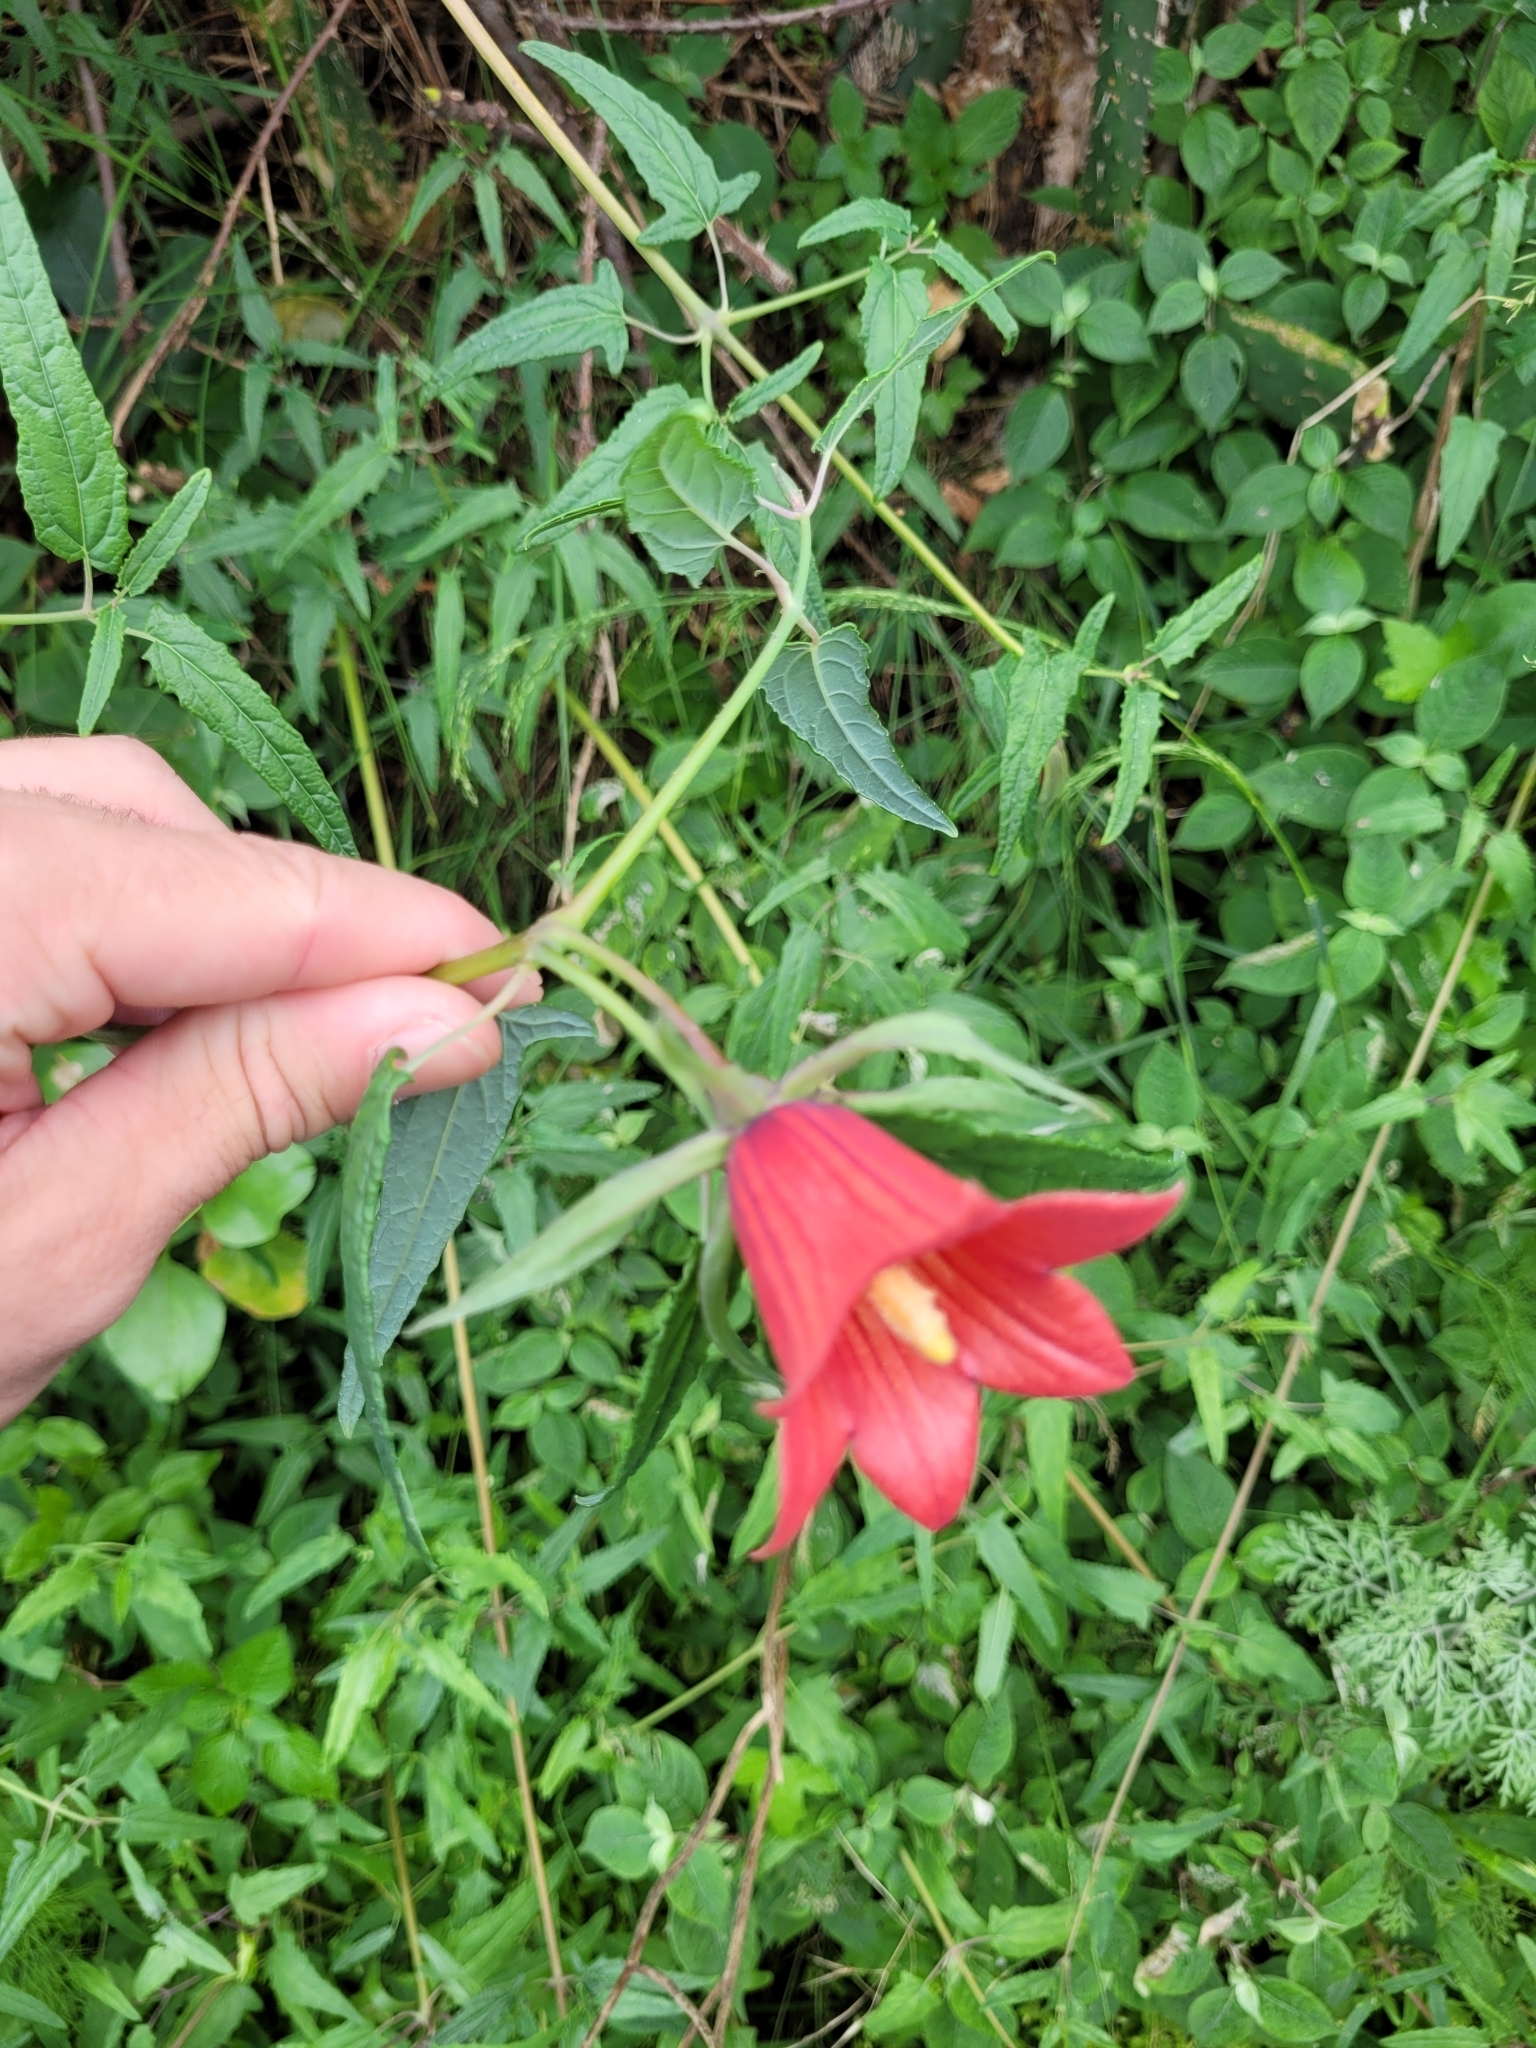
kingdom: Plantae
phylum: Tracheophyta
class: Magnoliopsida
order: Asterales
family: Campanulaceae
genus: Canarina
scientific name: Canarina canariensis
